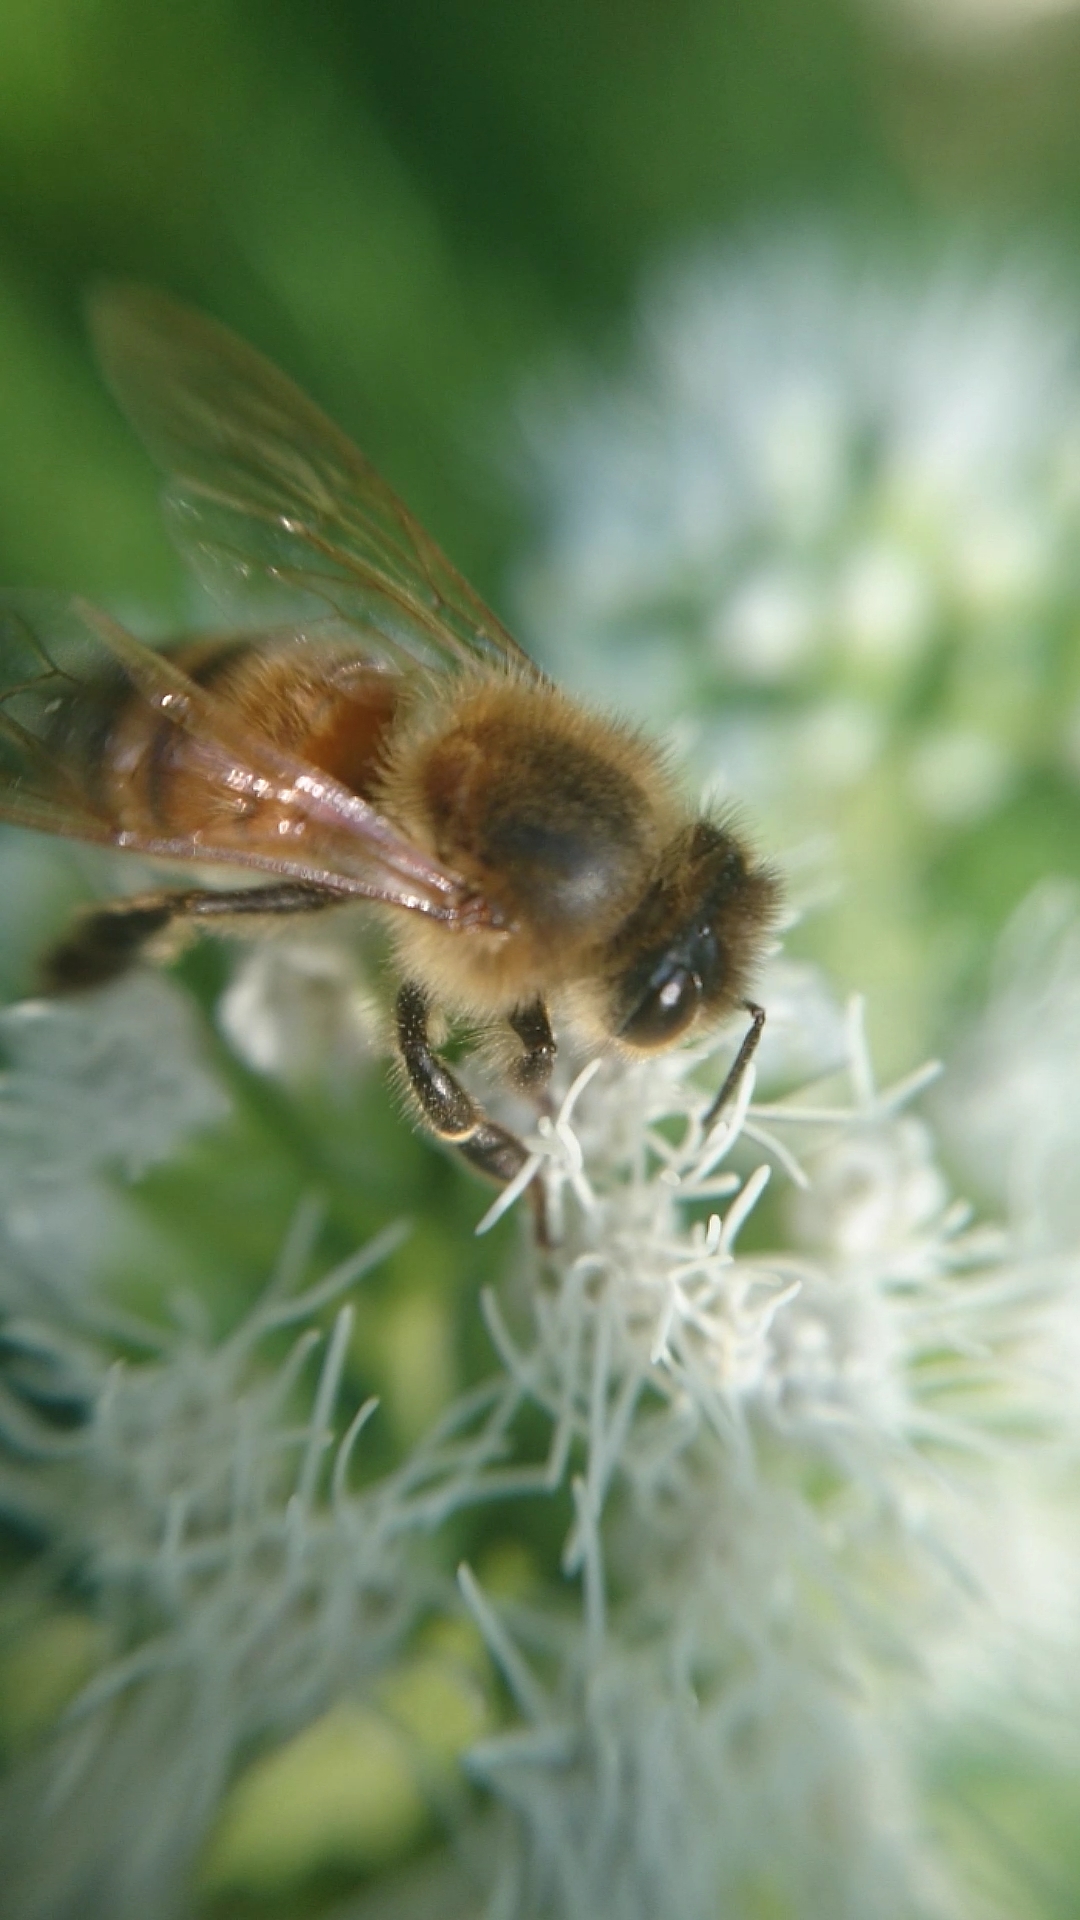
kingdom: Animalia
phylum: Arthropoda
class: Insecta
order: Hymenoptera
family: Apidae
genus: Apis
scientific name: Apis mellifera
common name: Honey bee
